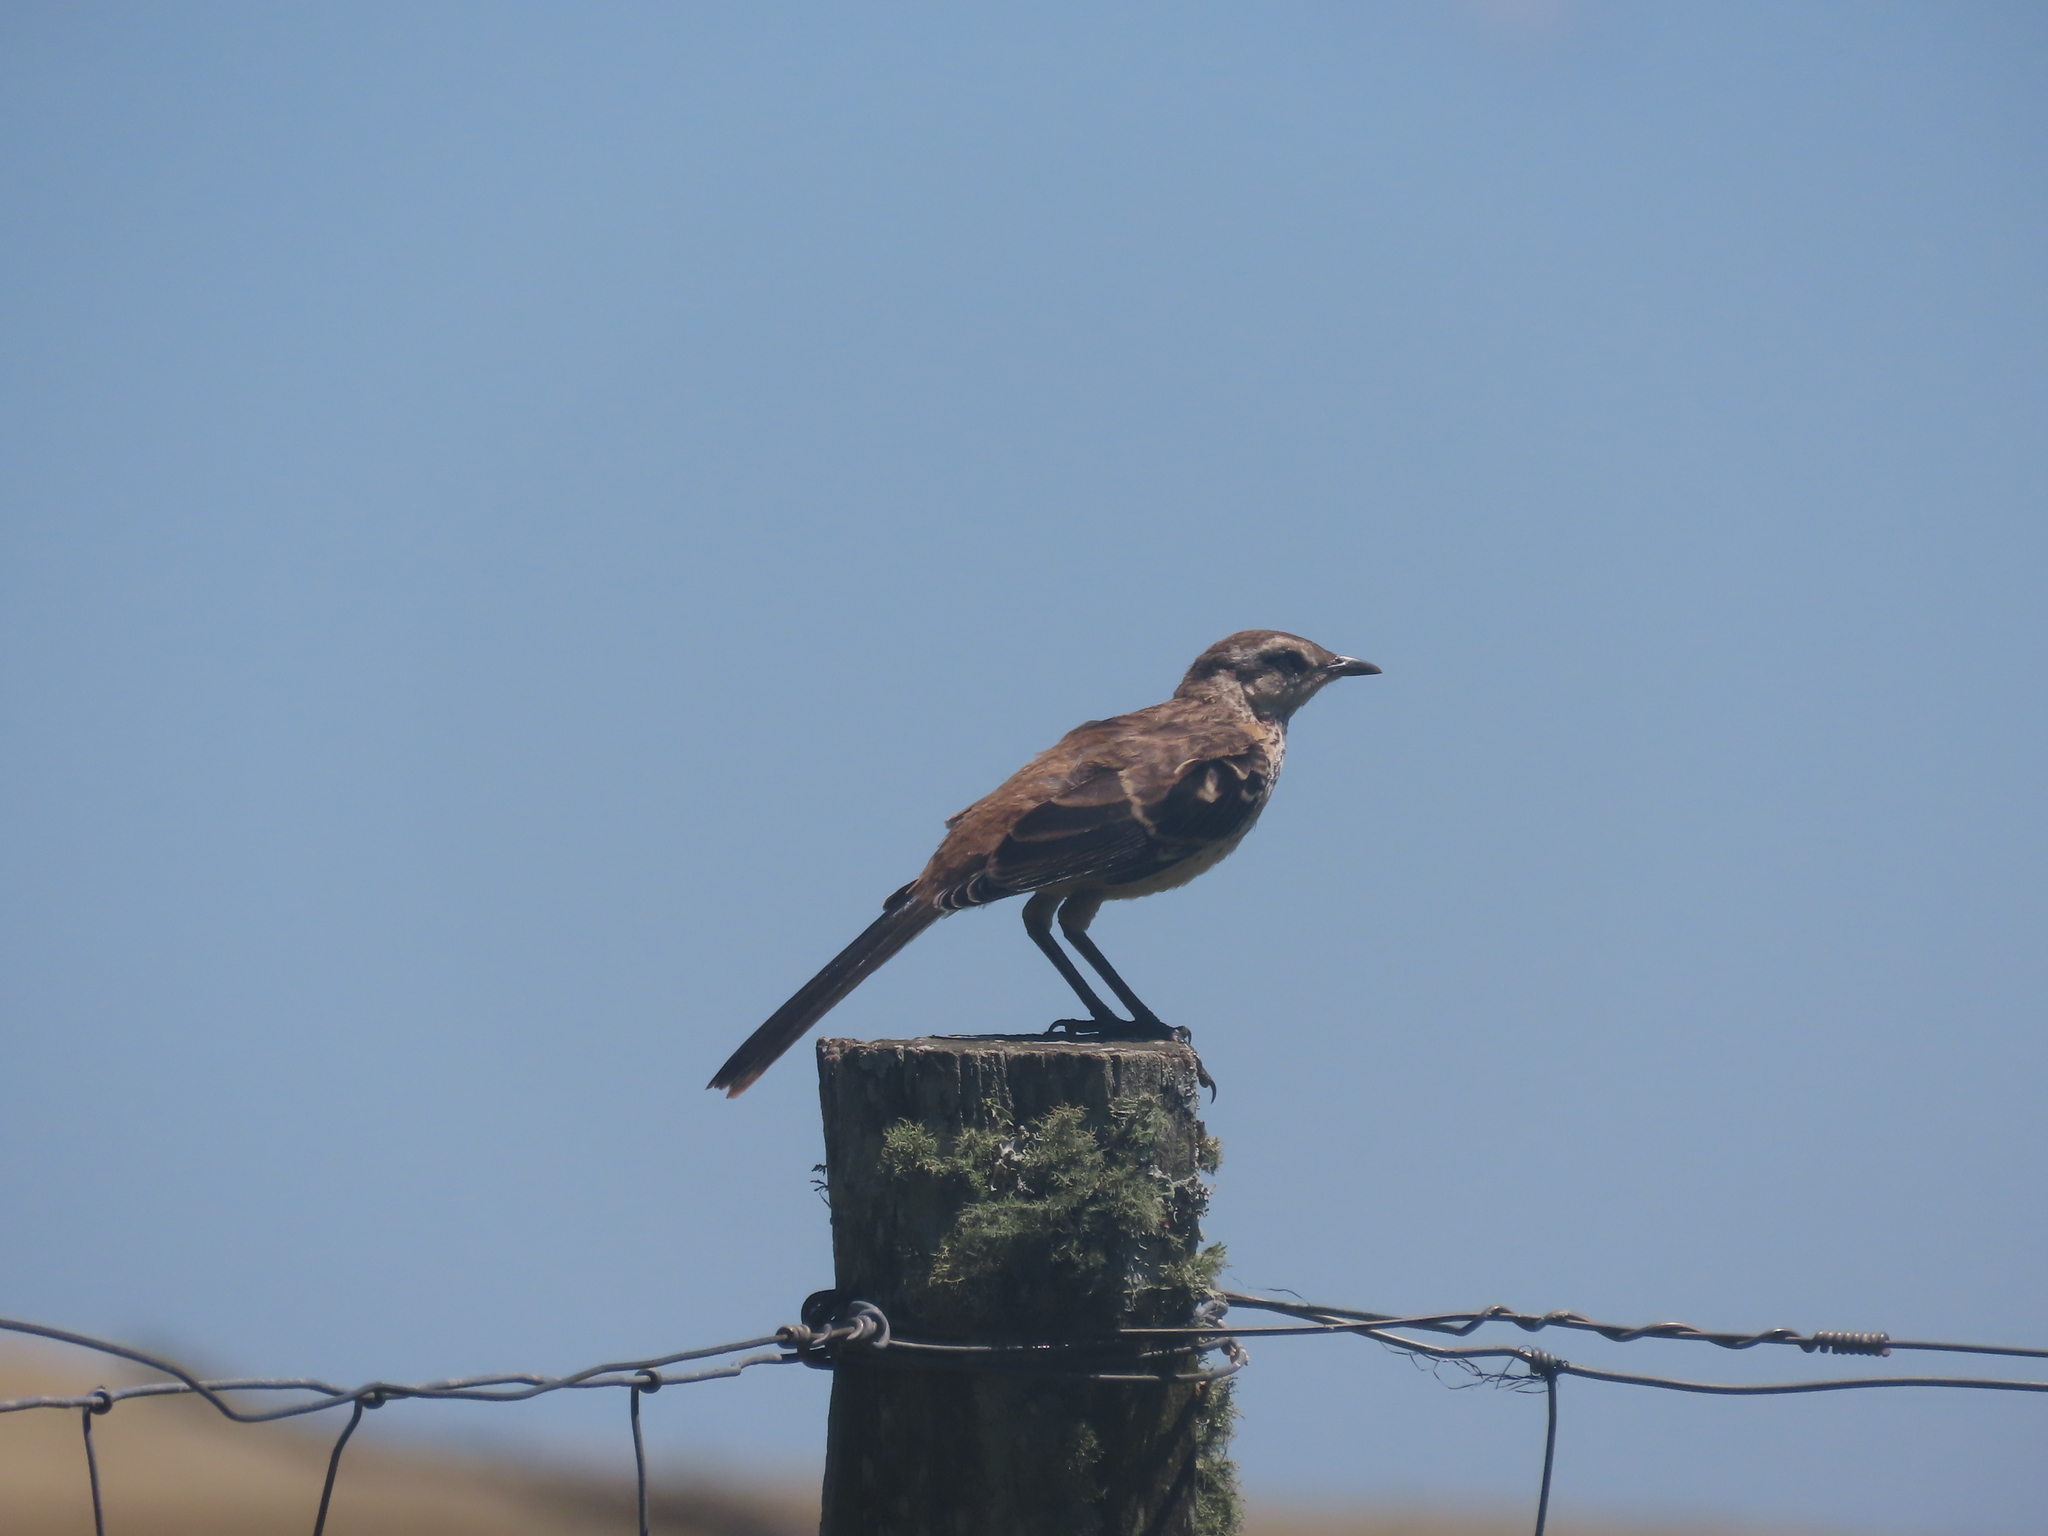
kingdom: Animalia
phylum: Chordata
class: Aves
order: Passeriformes
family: Mimidae
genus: Mimus
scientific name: Mimus saturninus
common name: Chalk-browed mockingbird
